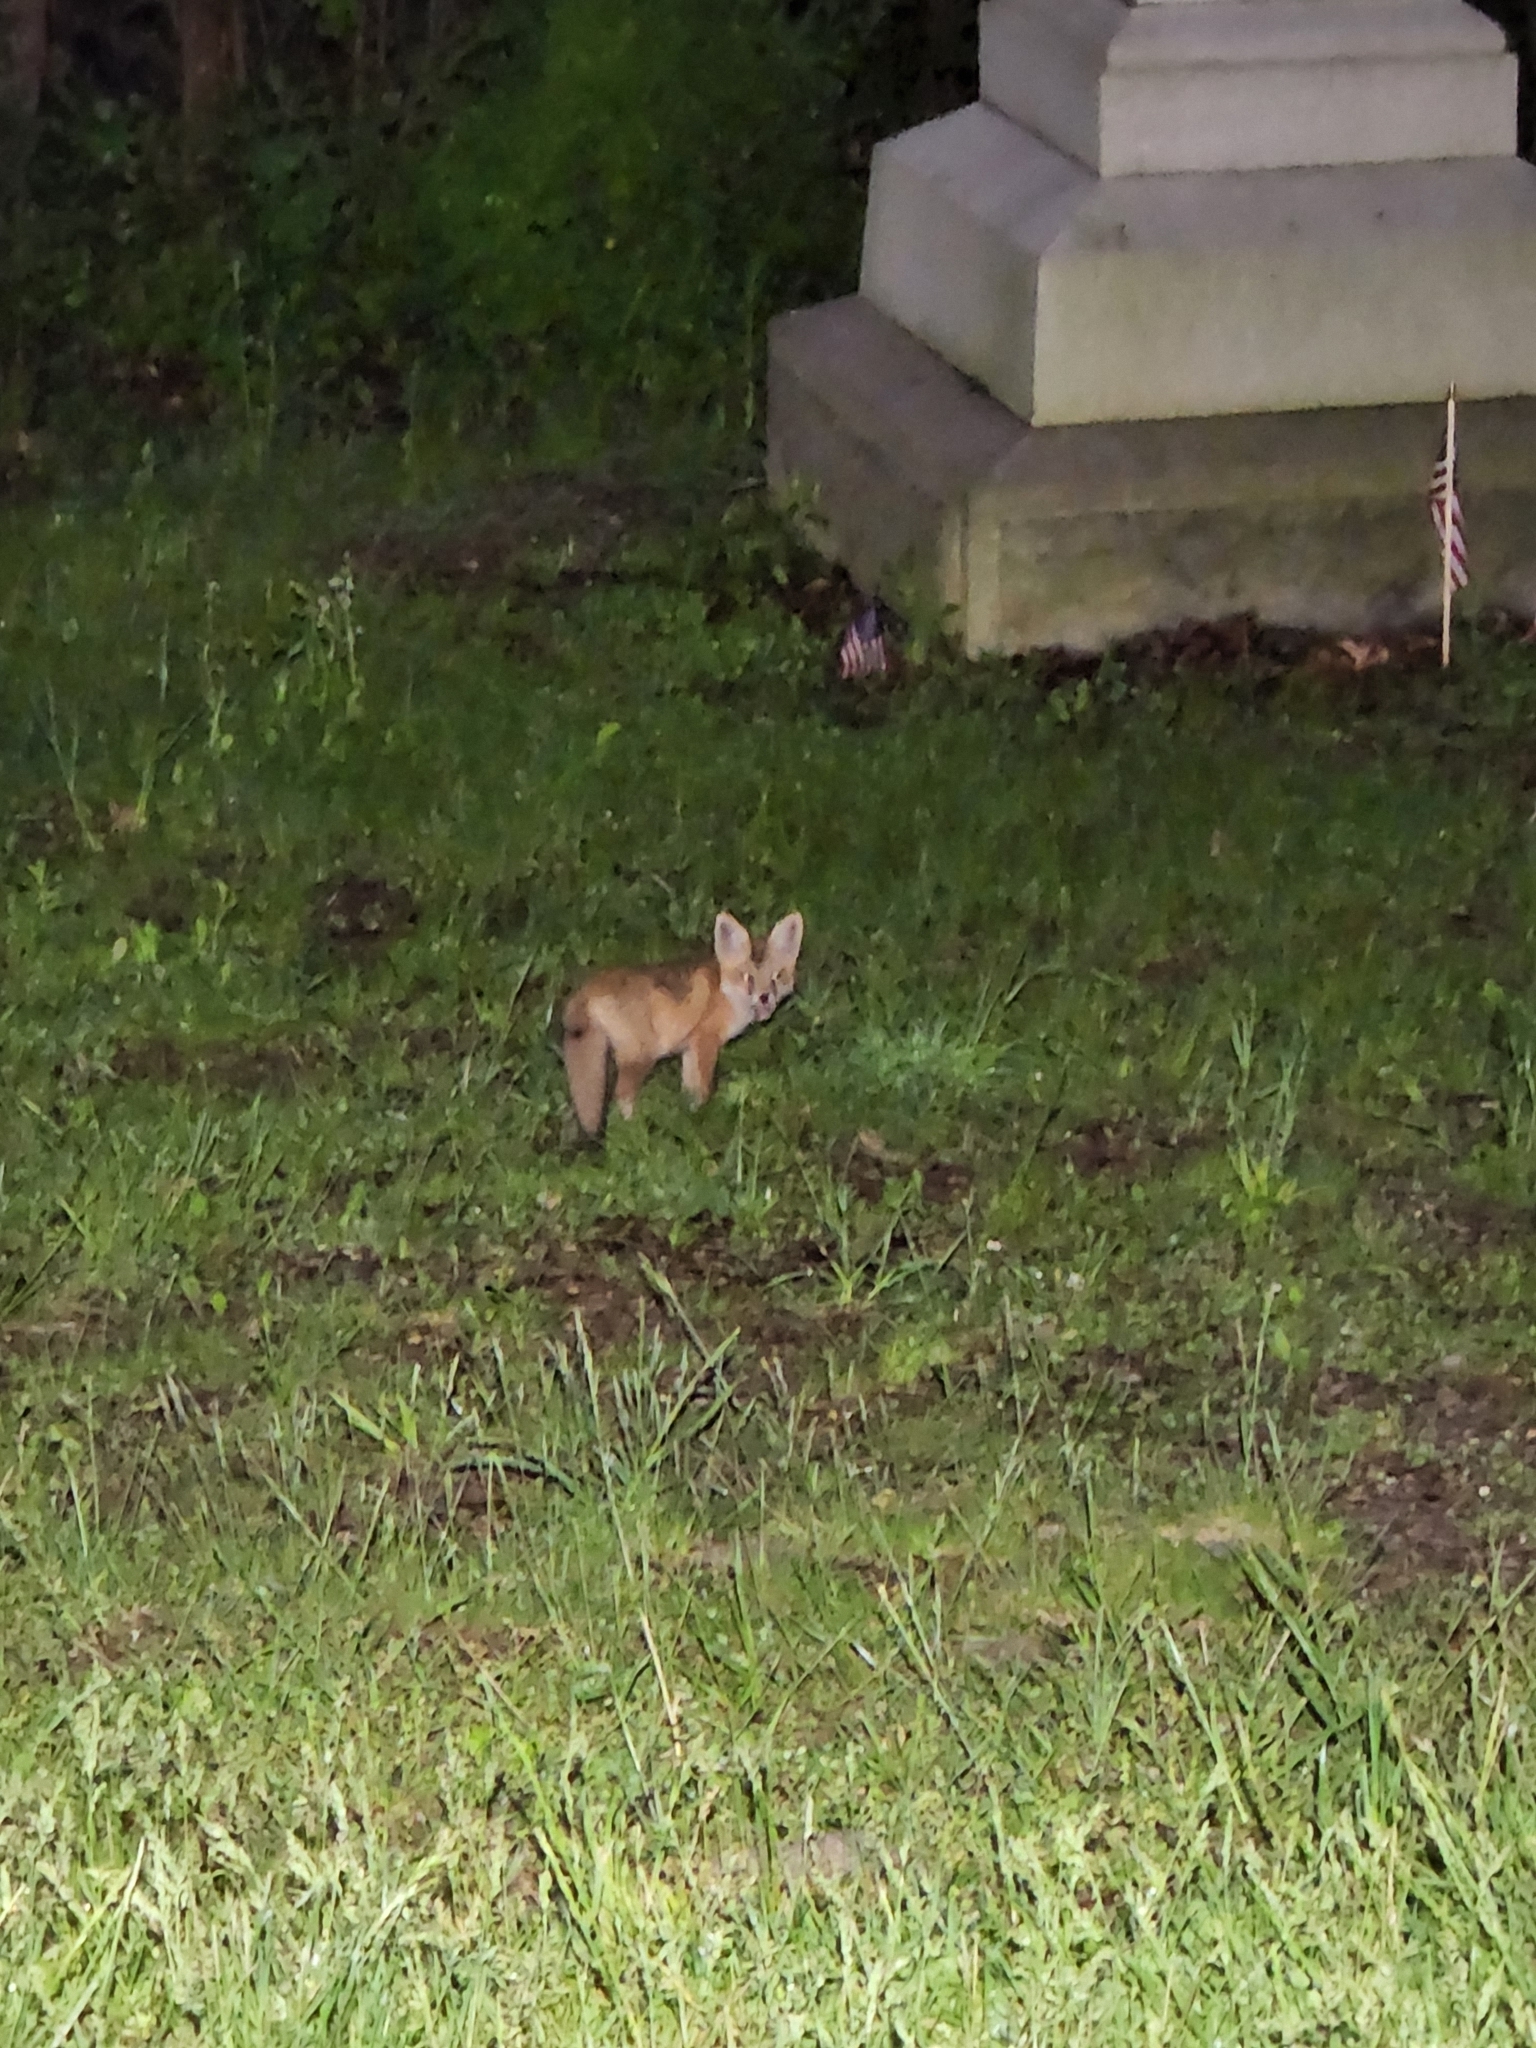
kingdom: Animalia
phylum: Chordata
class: Mammalia
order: Carnivora
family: Canidae
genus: Vulpes
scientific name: Vulpes vulpes
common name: Red fox
